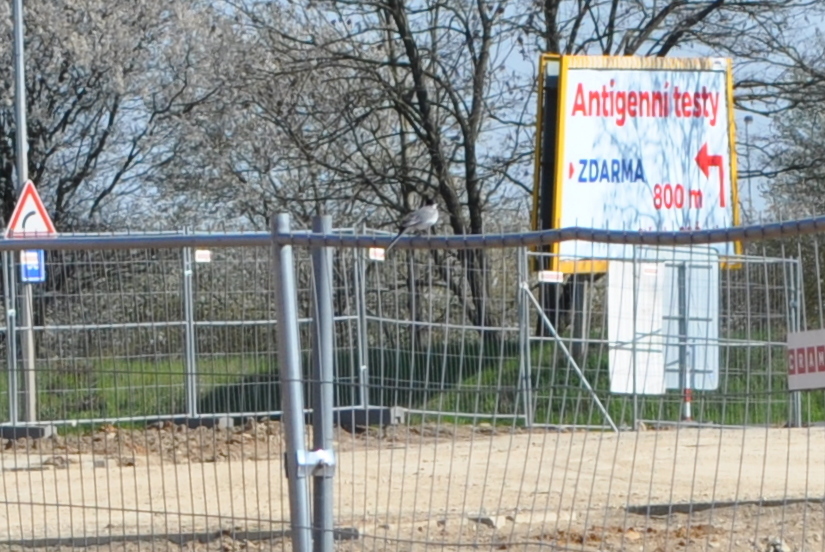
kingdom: Animalia
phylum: Chordata
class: Aves
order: Passeriformes
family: Motacillidae
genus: Motacilla
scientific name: Motacilla alba
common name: White wagtail
